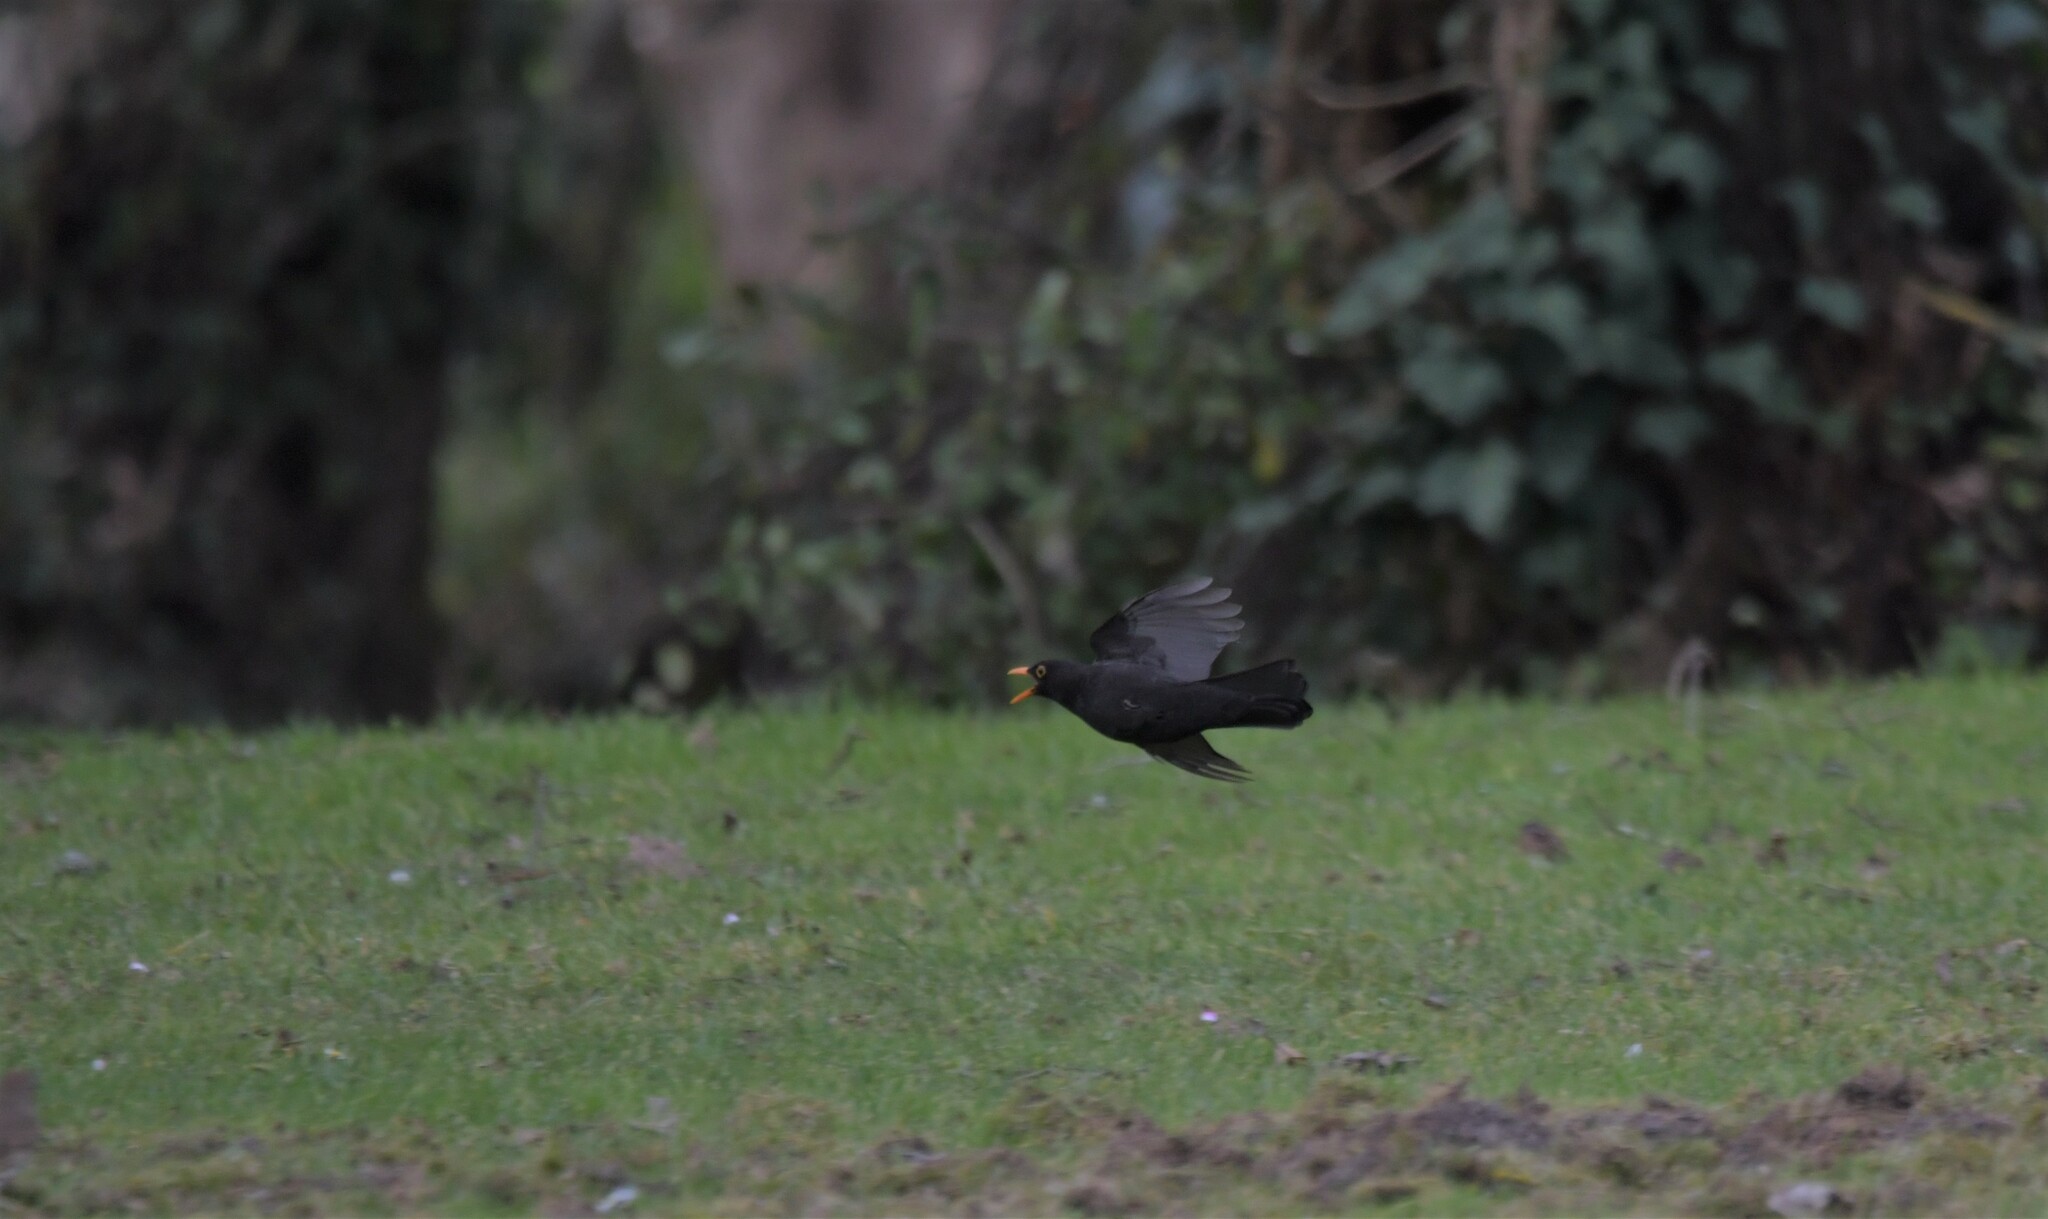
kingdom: Animalia
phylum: Chordata
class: Aves
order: Passeriformes
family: Turdidae
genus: Turdus
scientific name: Turdus merula
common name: Common blackbird
